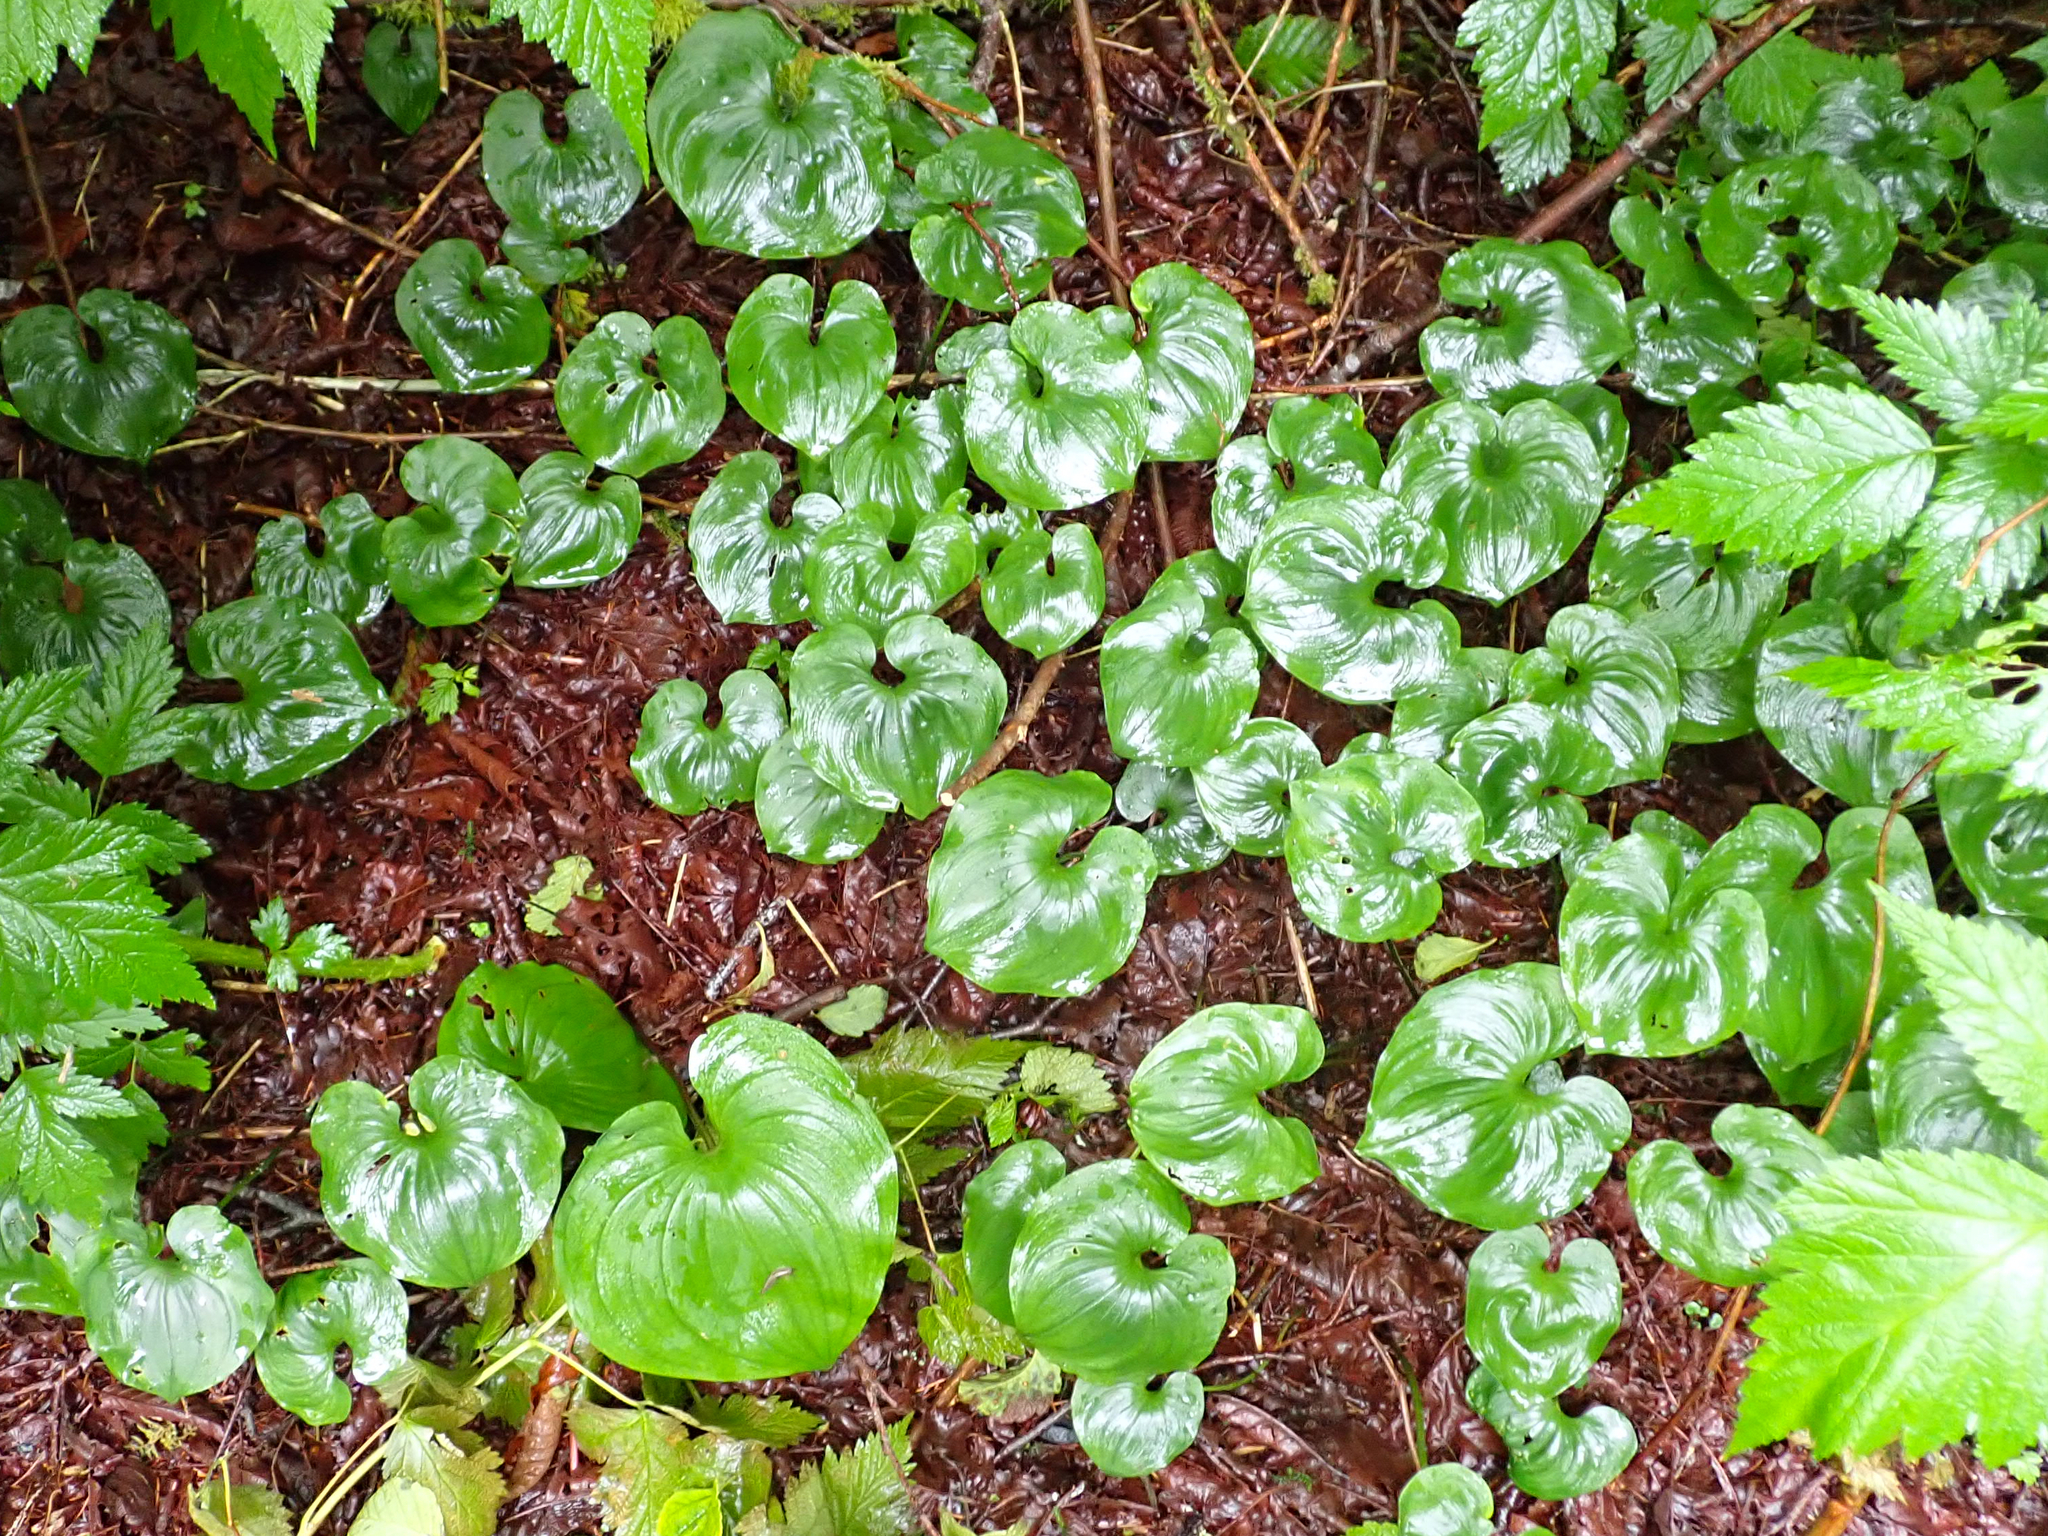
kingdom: Plantae
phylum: Tracheophyta
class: Liliopsida
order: Asparagales
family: Asparagaceae
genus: Maianthemum
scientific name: Maianthemum dilatatum
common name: False lily-of-the-valley
